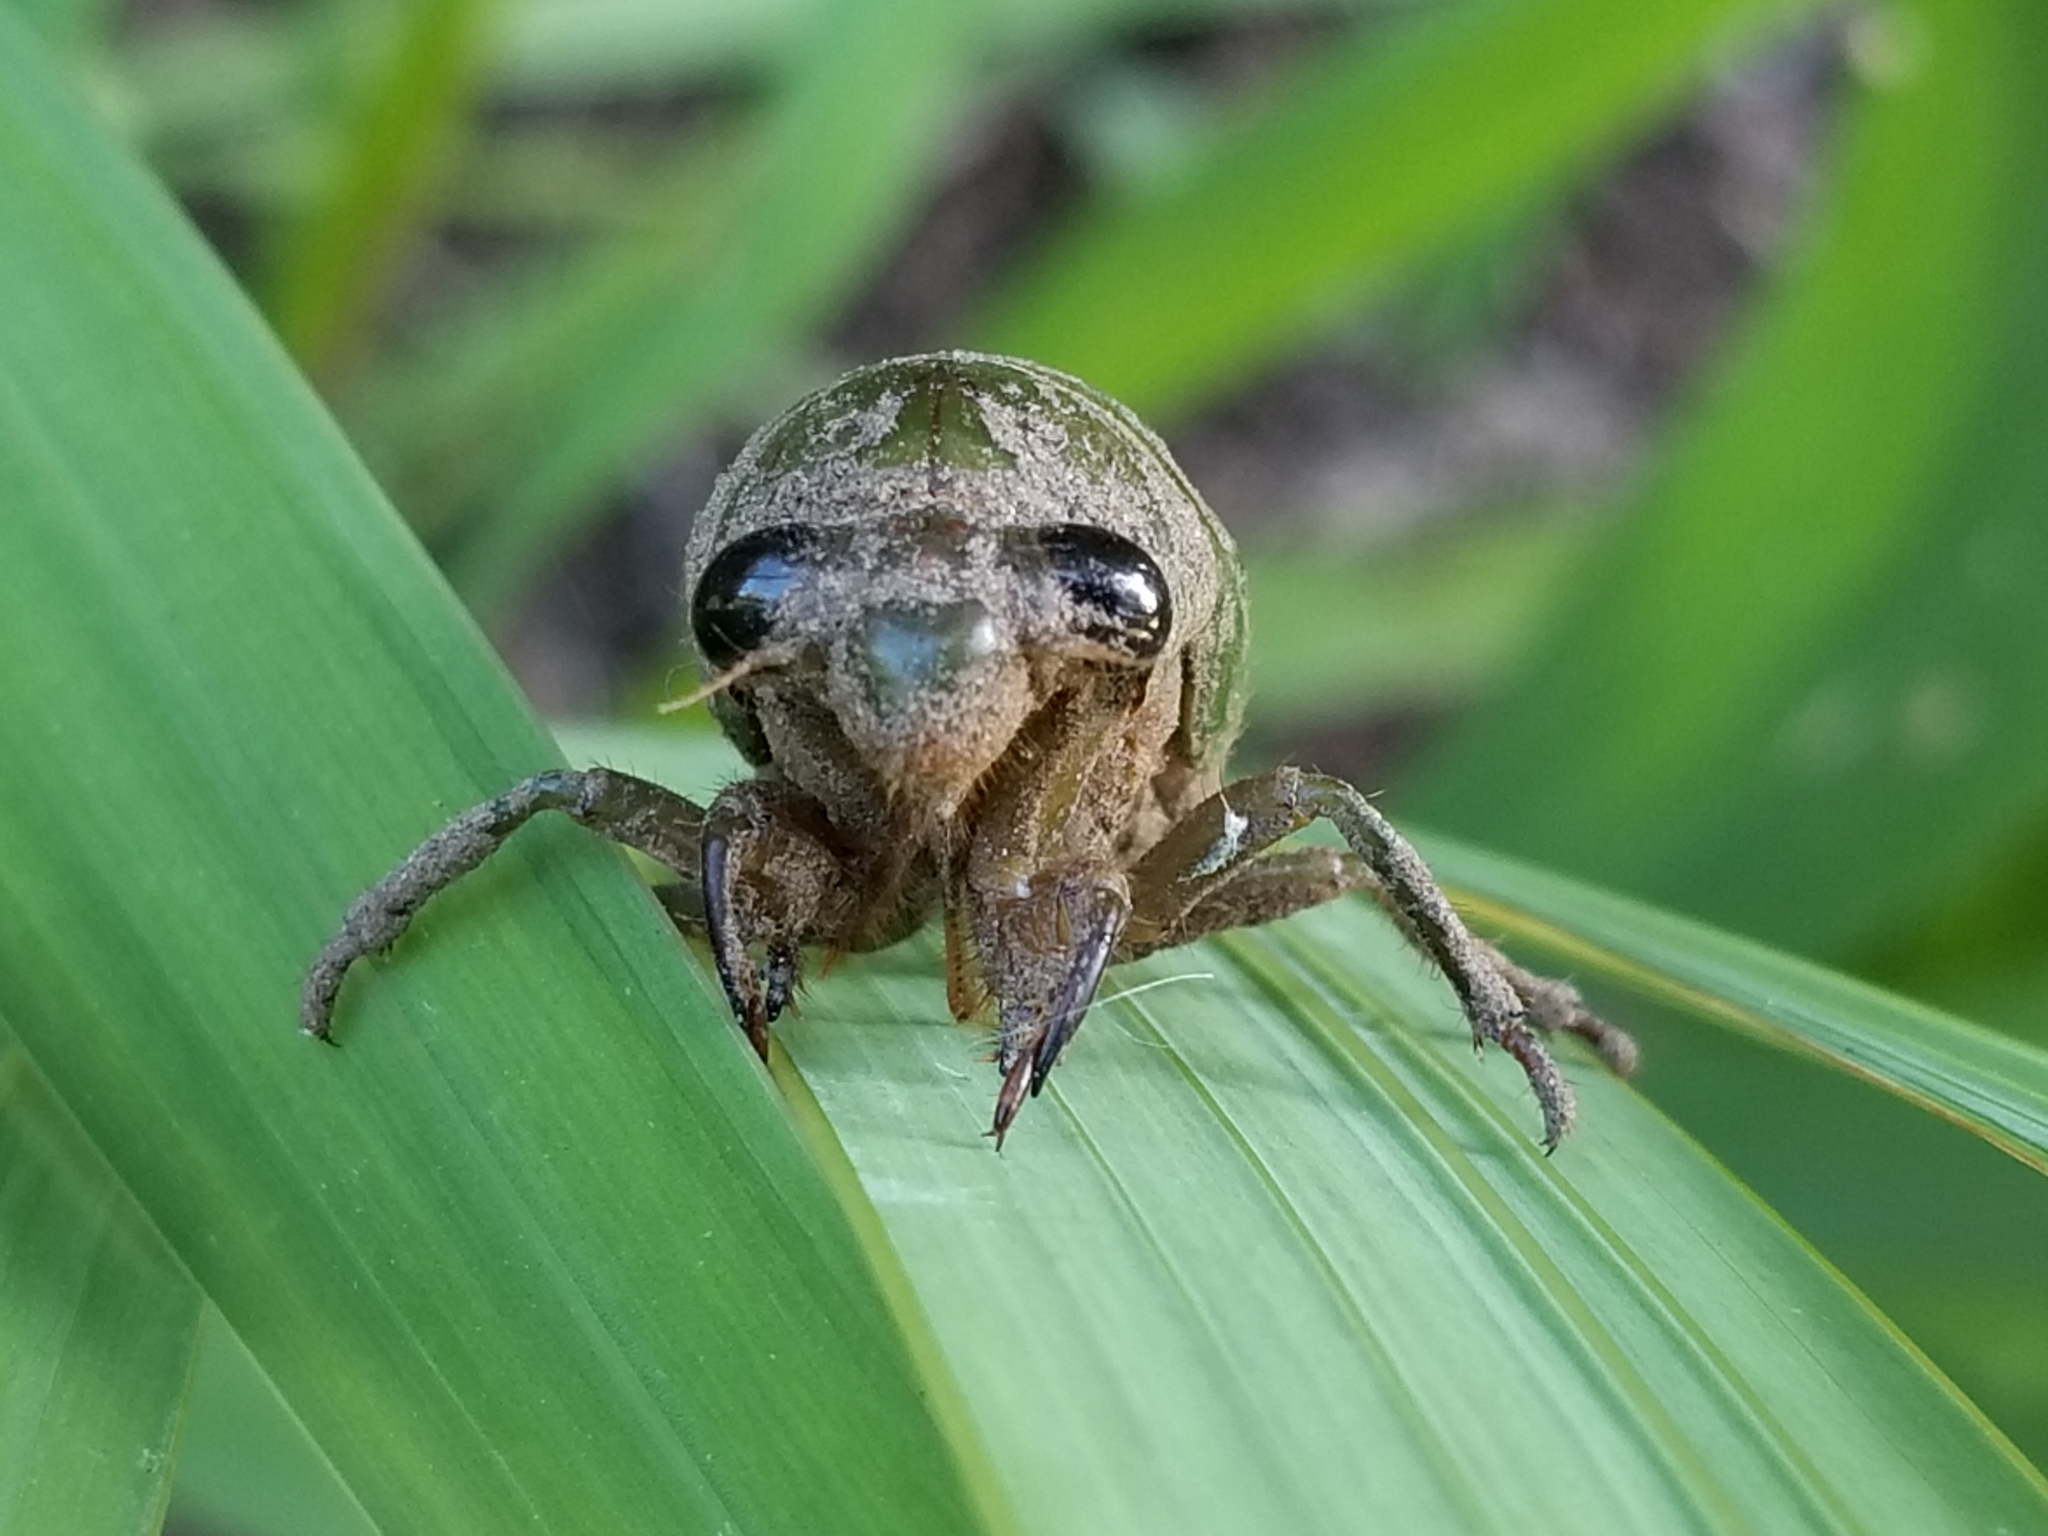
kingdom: Animalia
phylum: Arthropoda
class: Insecta
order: Hemiptera
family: Cicadidae
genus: Neotibicen
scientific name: Neotibicen superbus
